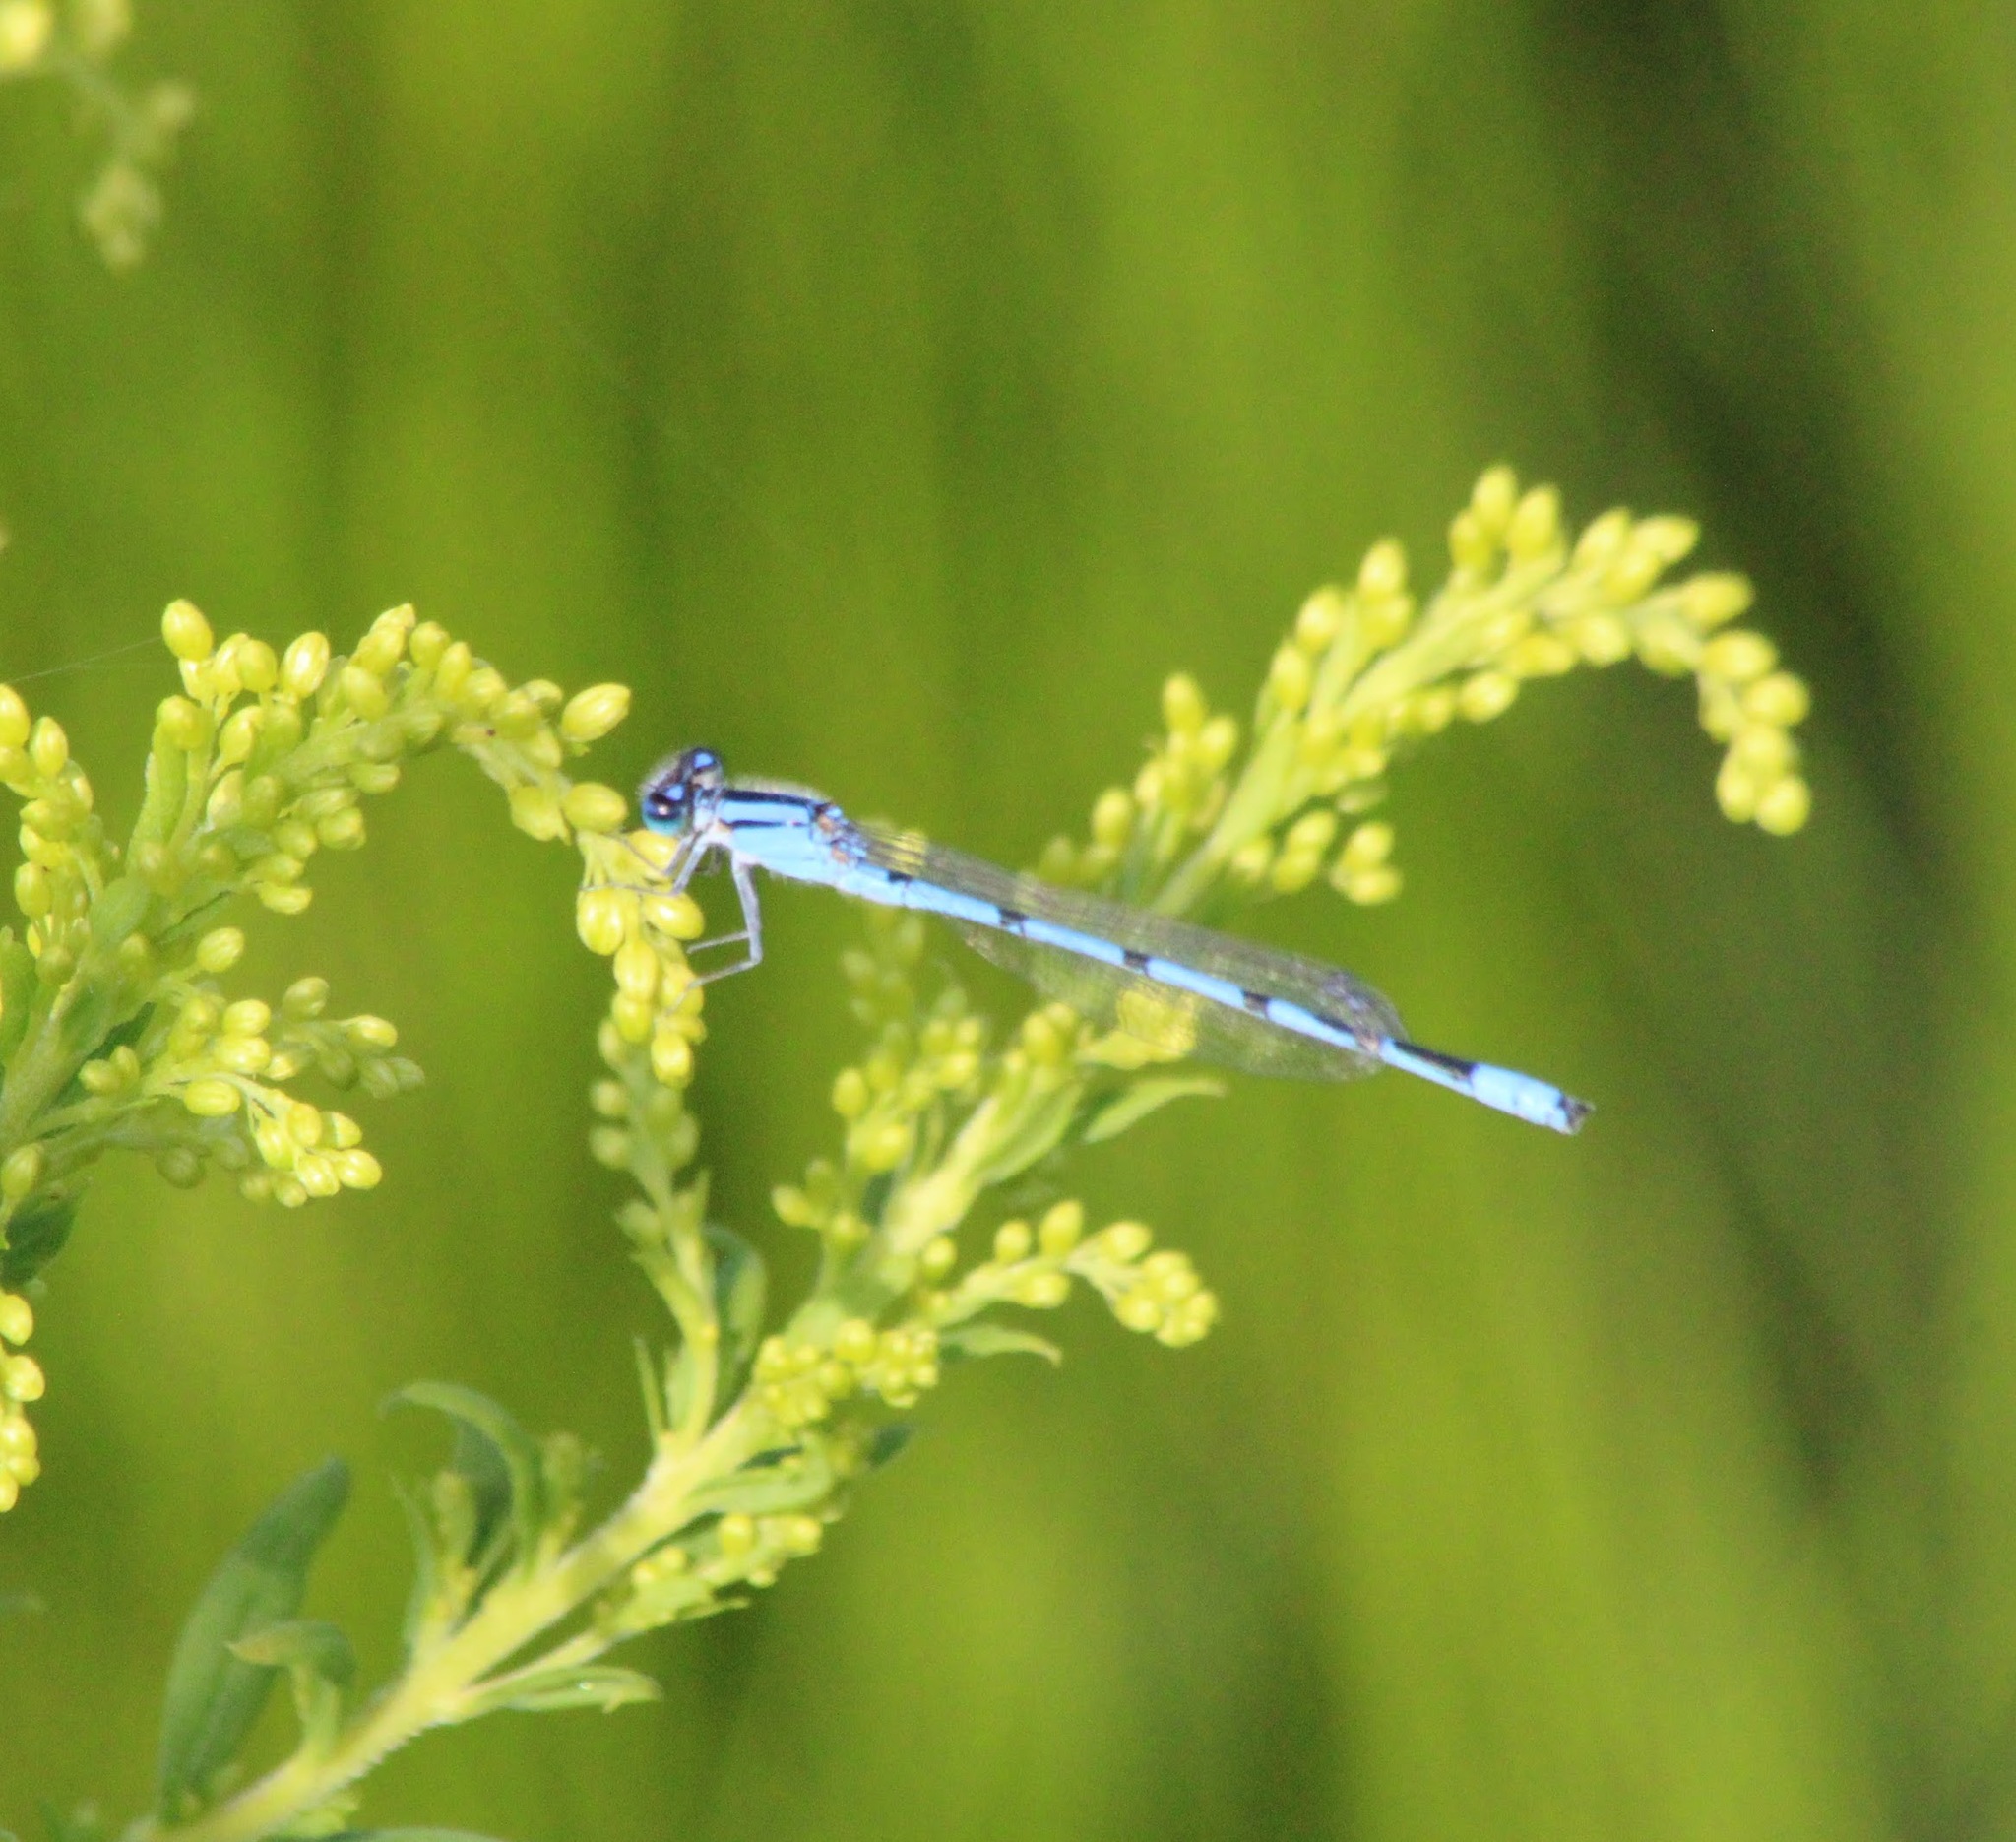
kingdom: Animalia
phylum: Arthropoda
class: Insecta
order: Odonata
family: Coenagrionidae
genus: Enallagma
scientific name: Enallagma civile
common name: Damselfly
